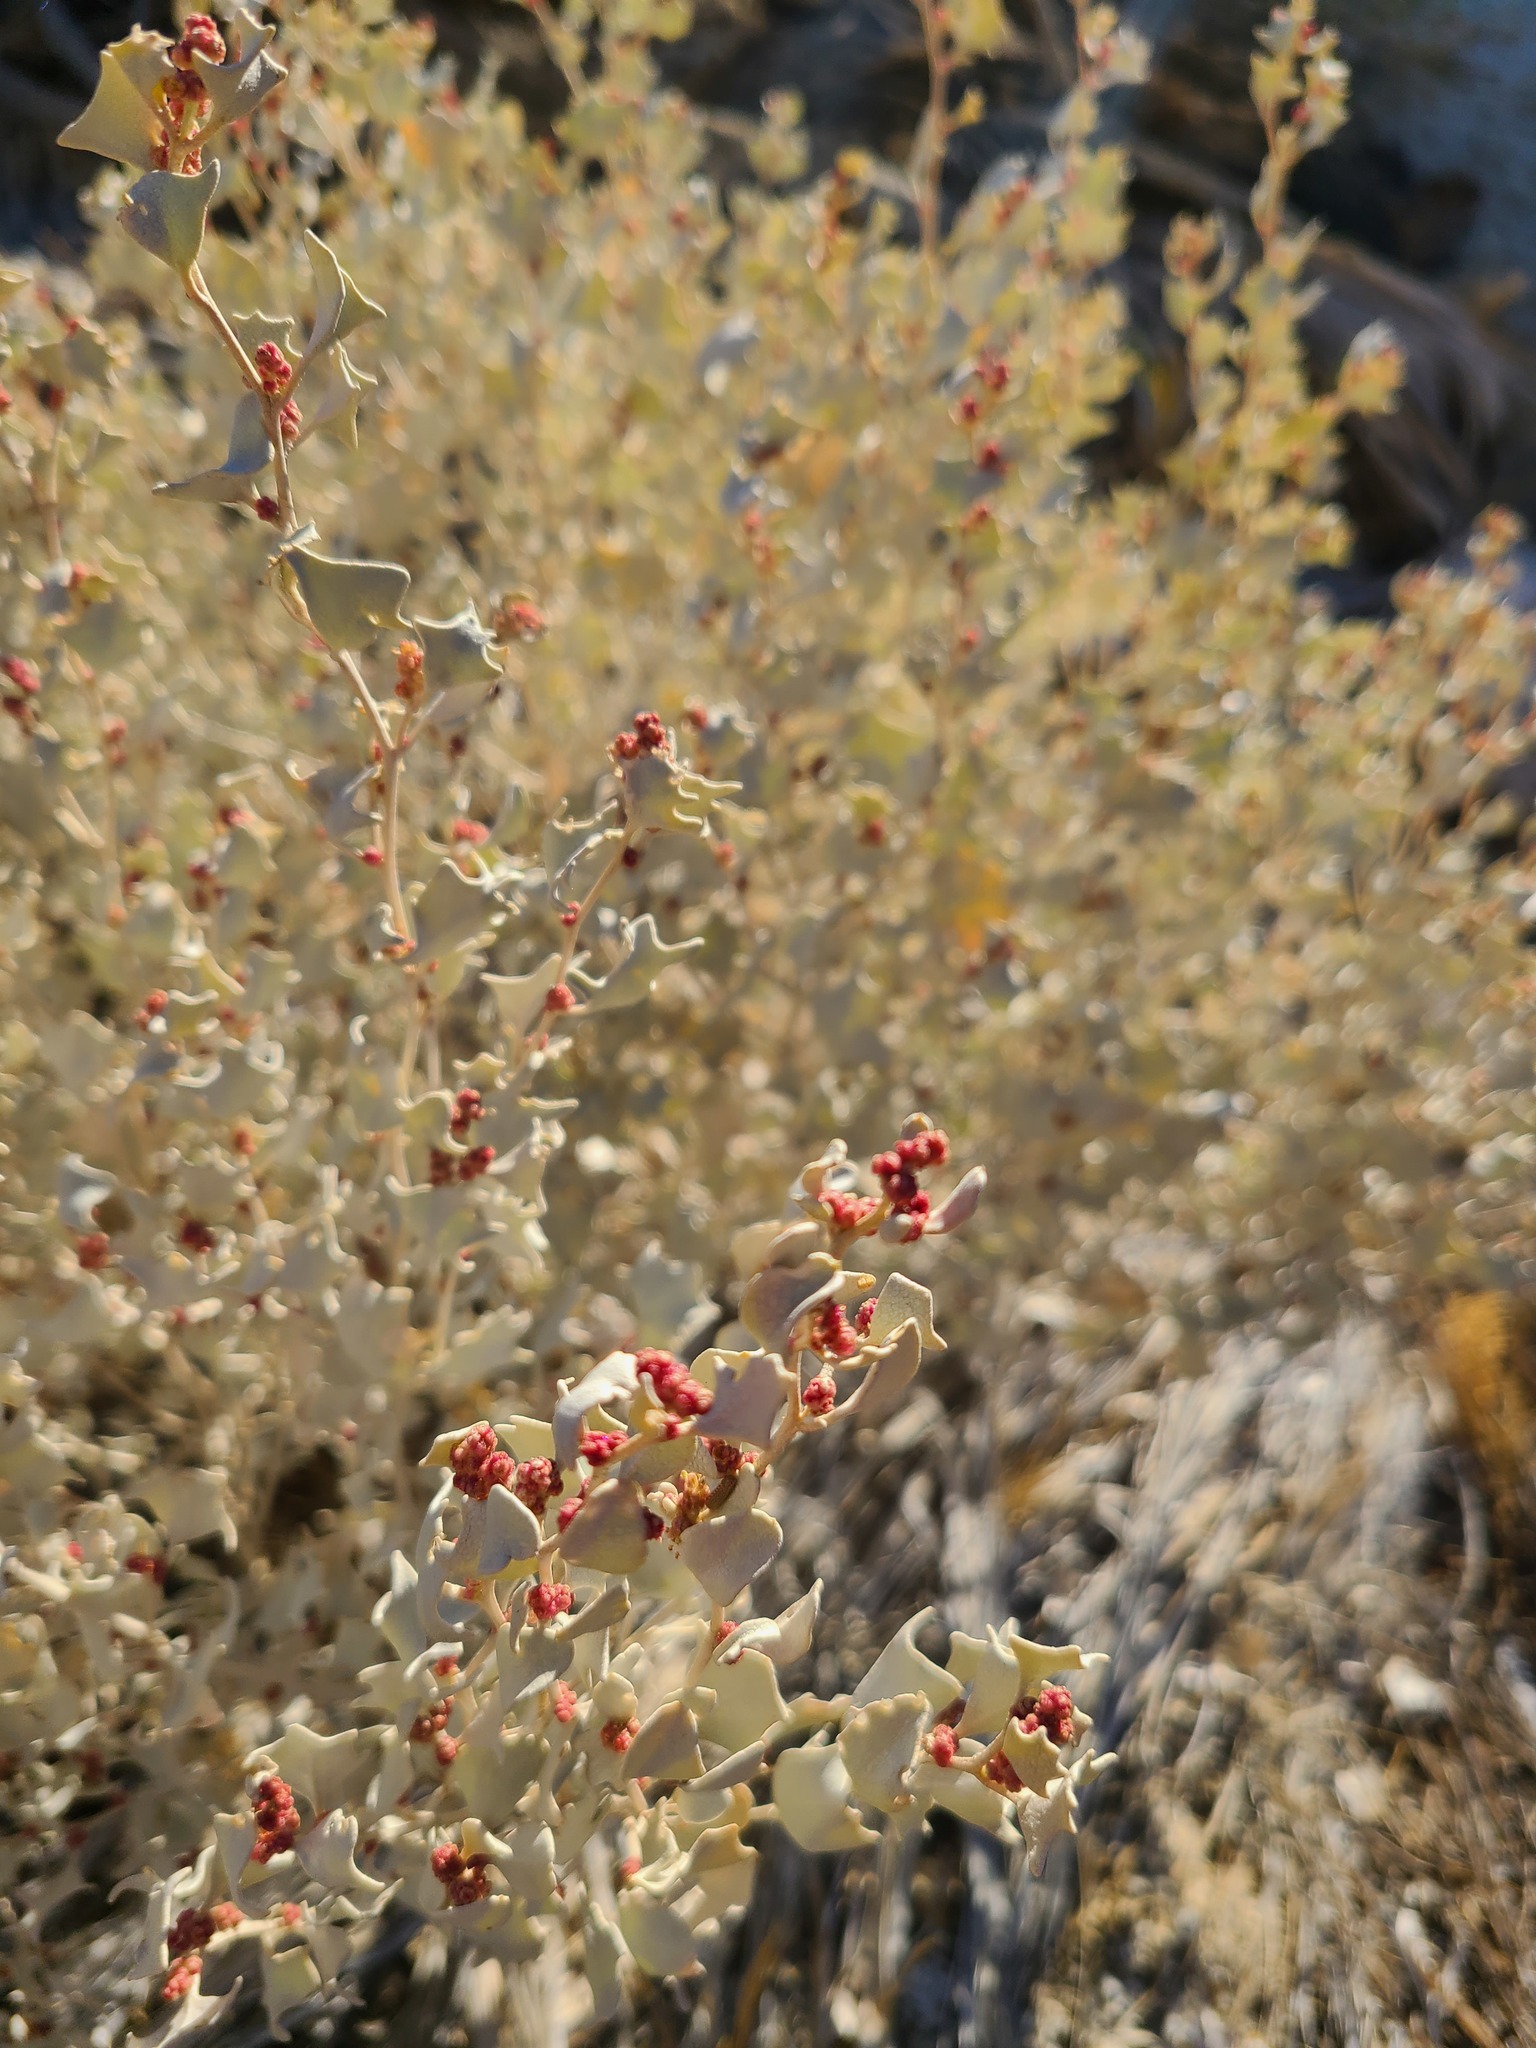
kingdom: Plantae
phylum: Tracheophyta
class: Magnoliopsida
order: Caryophyllales
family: Amaranthaceae
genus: Atriplex
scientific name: Atriplex hymenelytra
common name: Desert-holly
